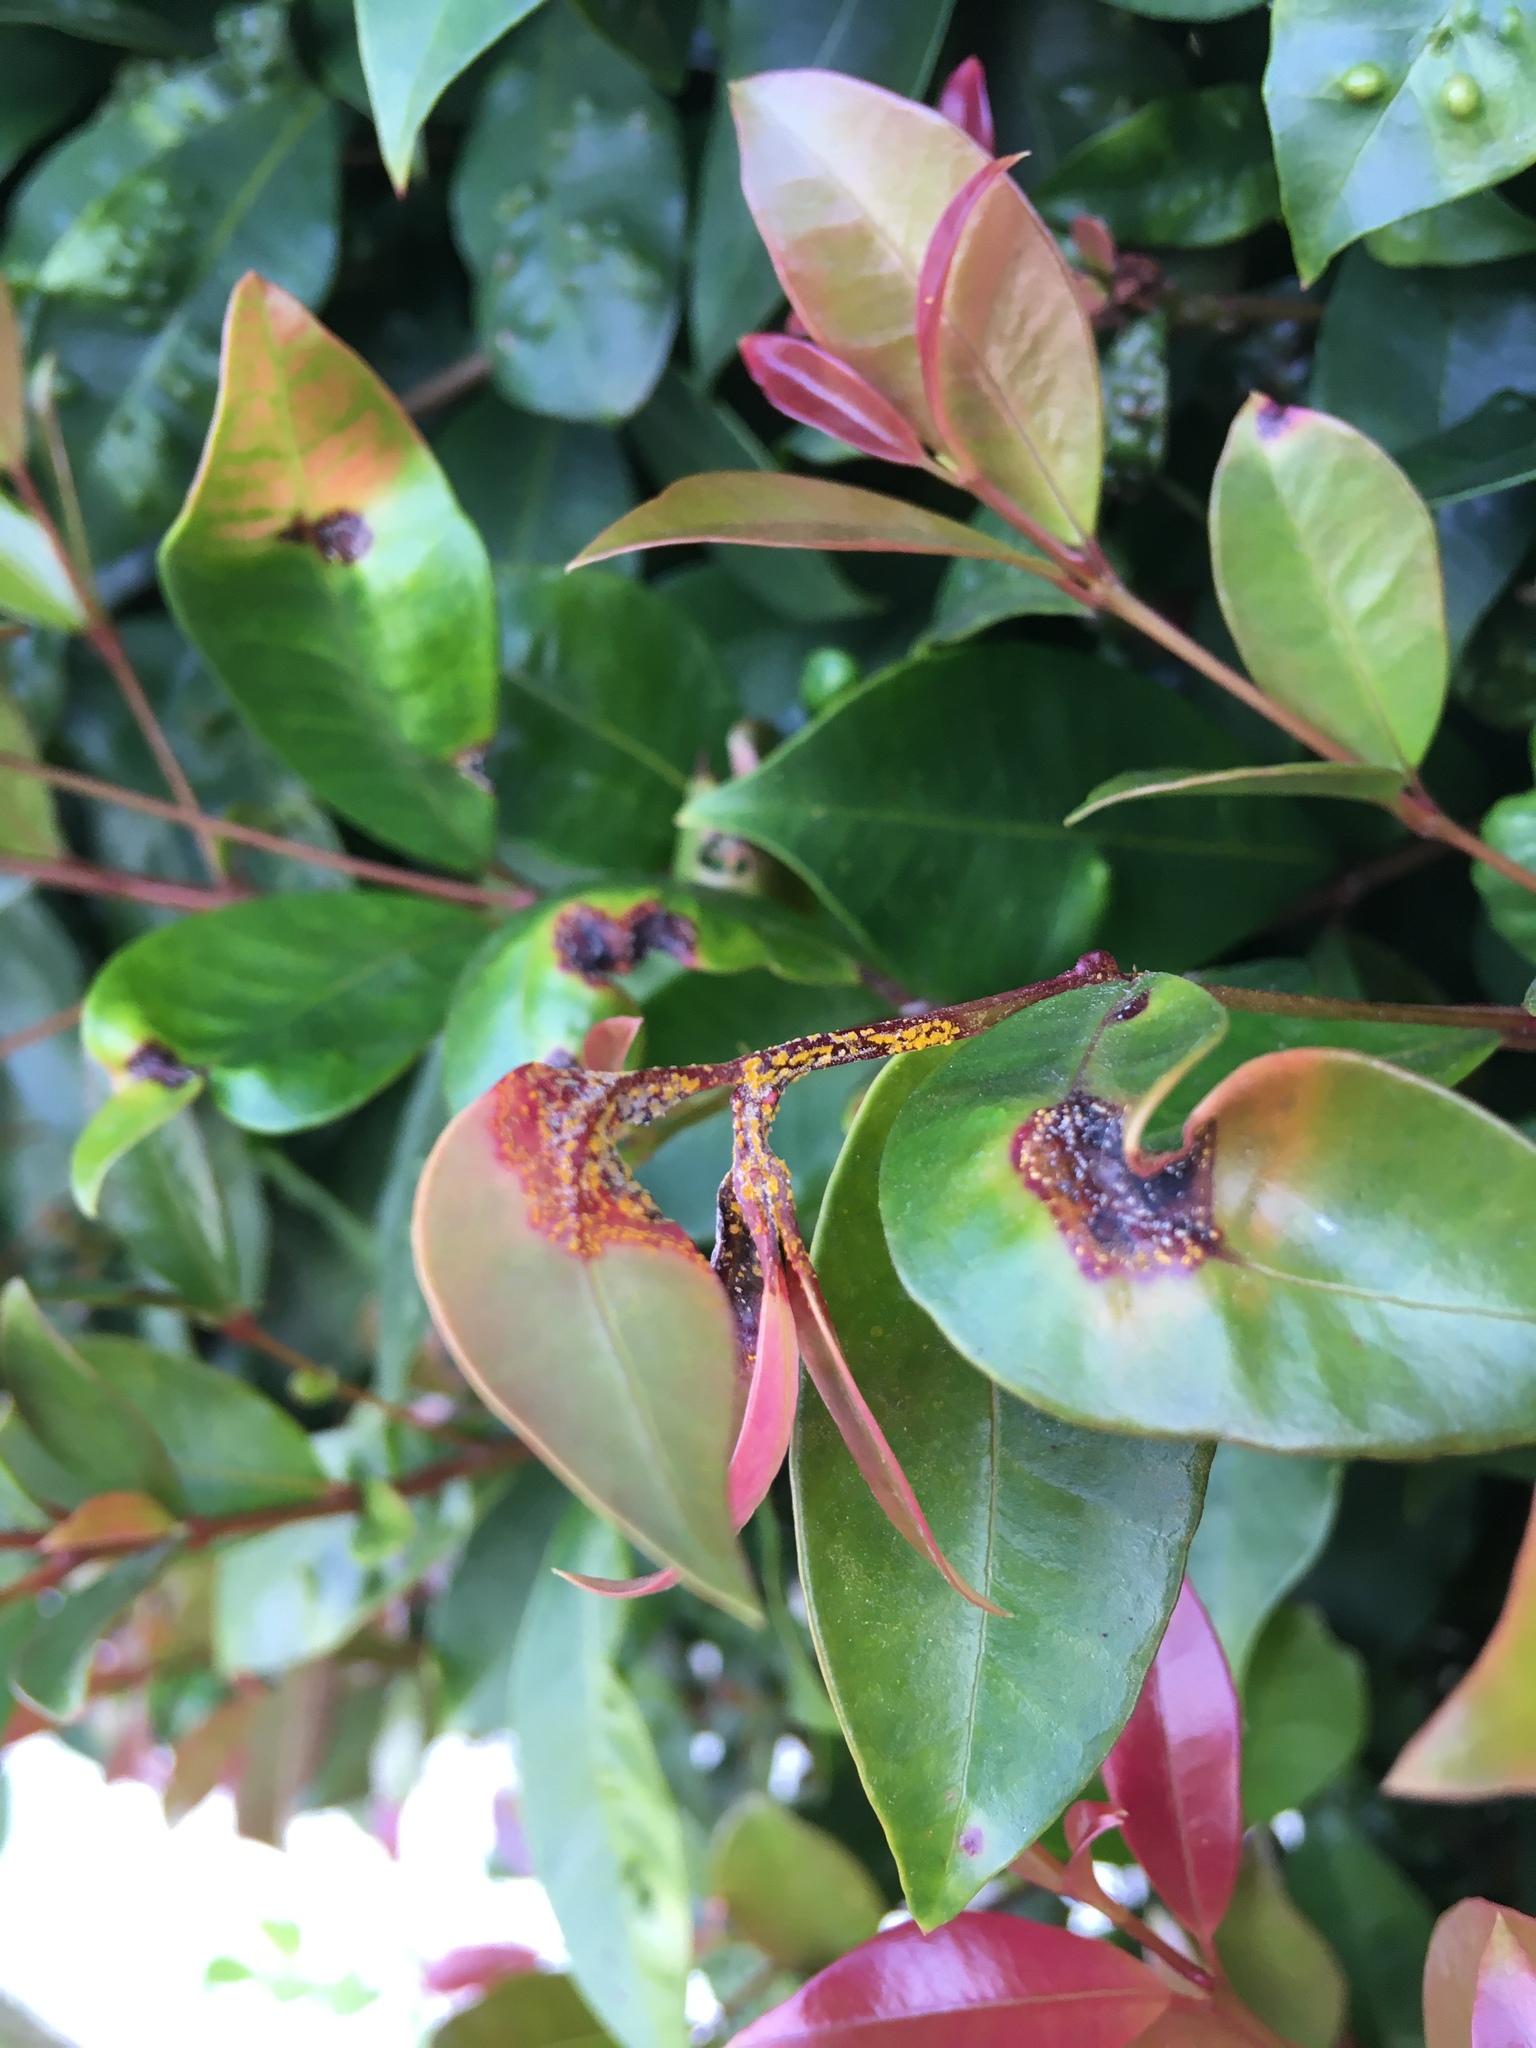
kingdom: Fungi
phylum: Basidiomycota
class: Pucciniomycetes
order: Pucciniales
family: Sphaerophragmiaceae
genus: Austropuccinia
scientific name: Austropuccinia psidii
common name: Myrtle rust
